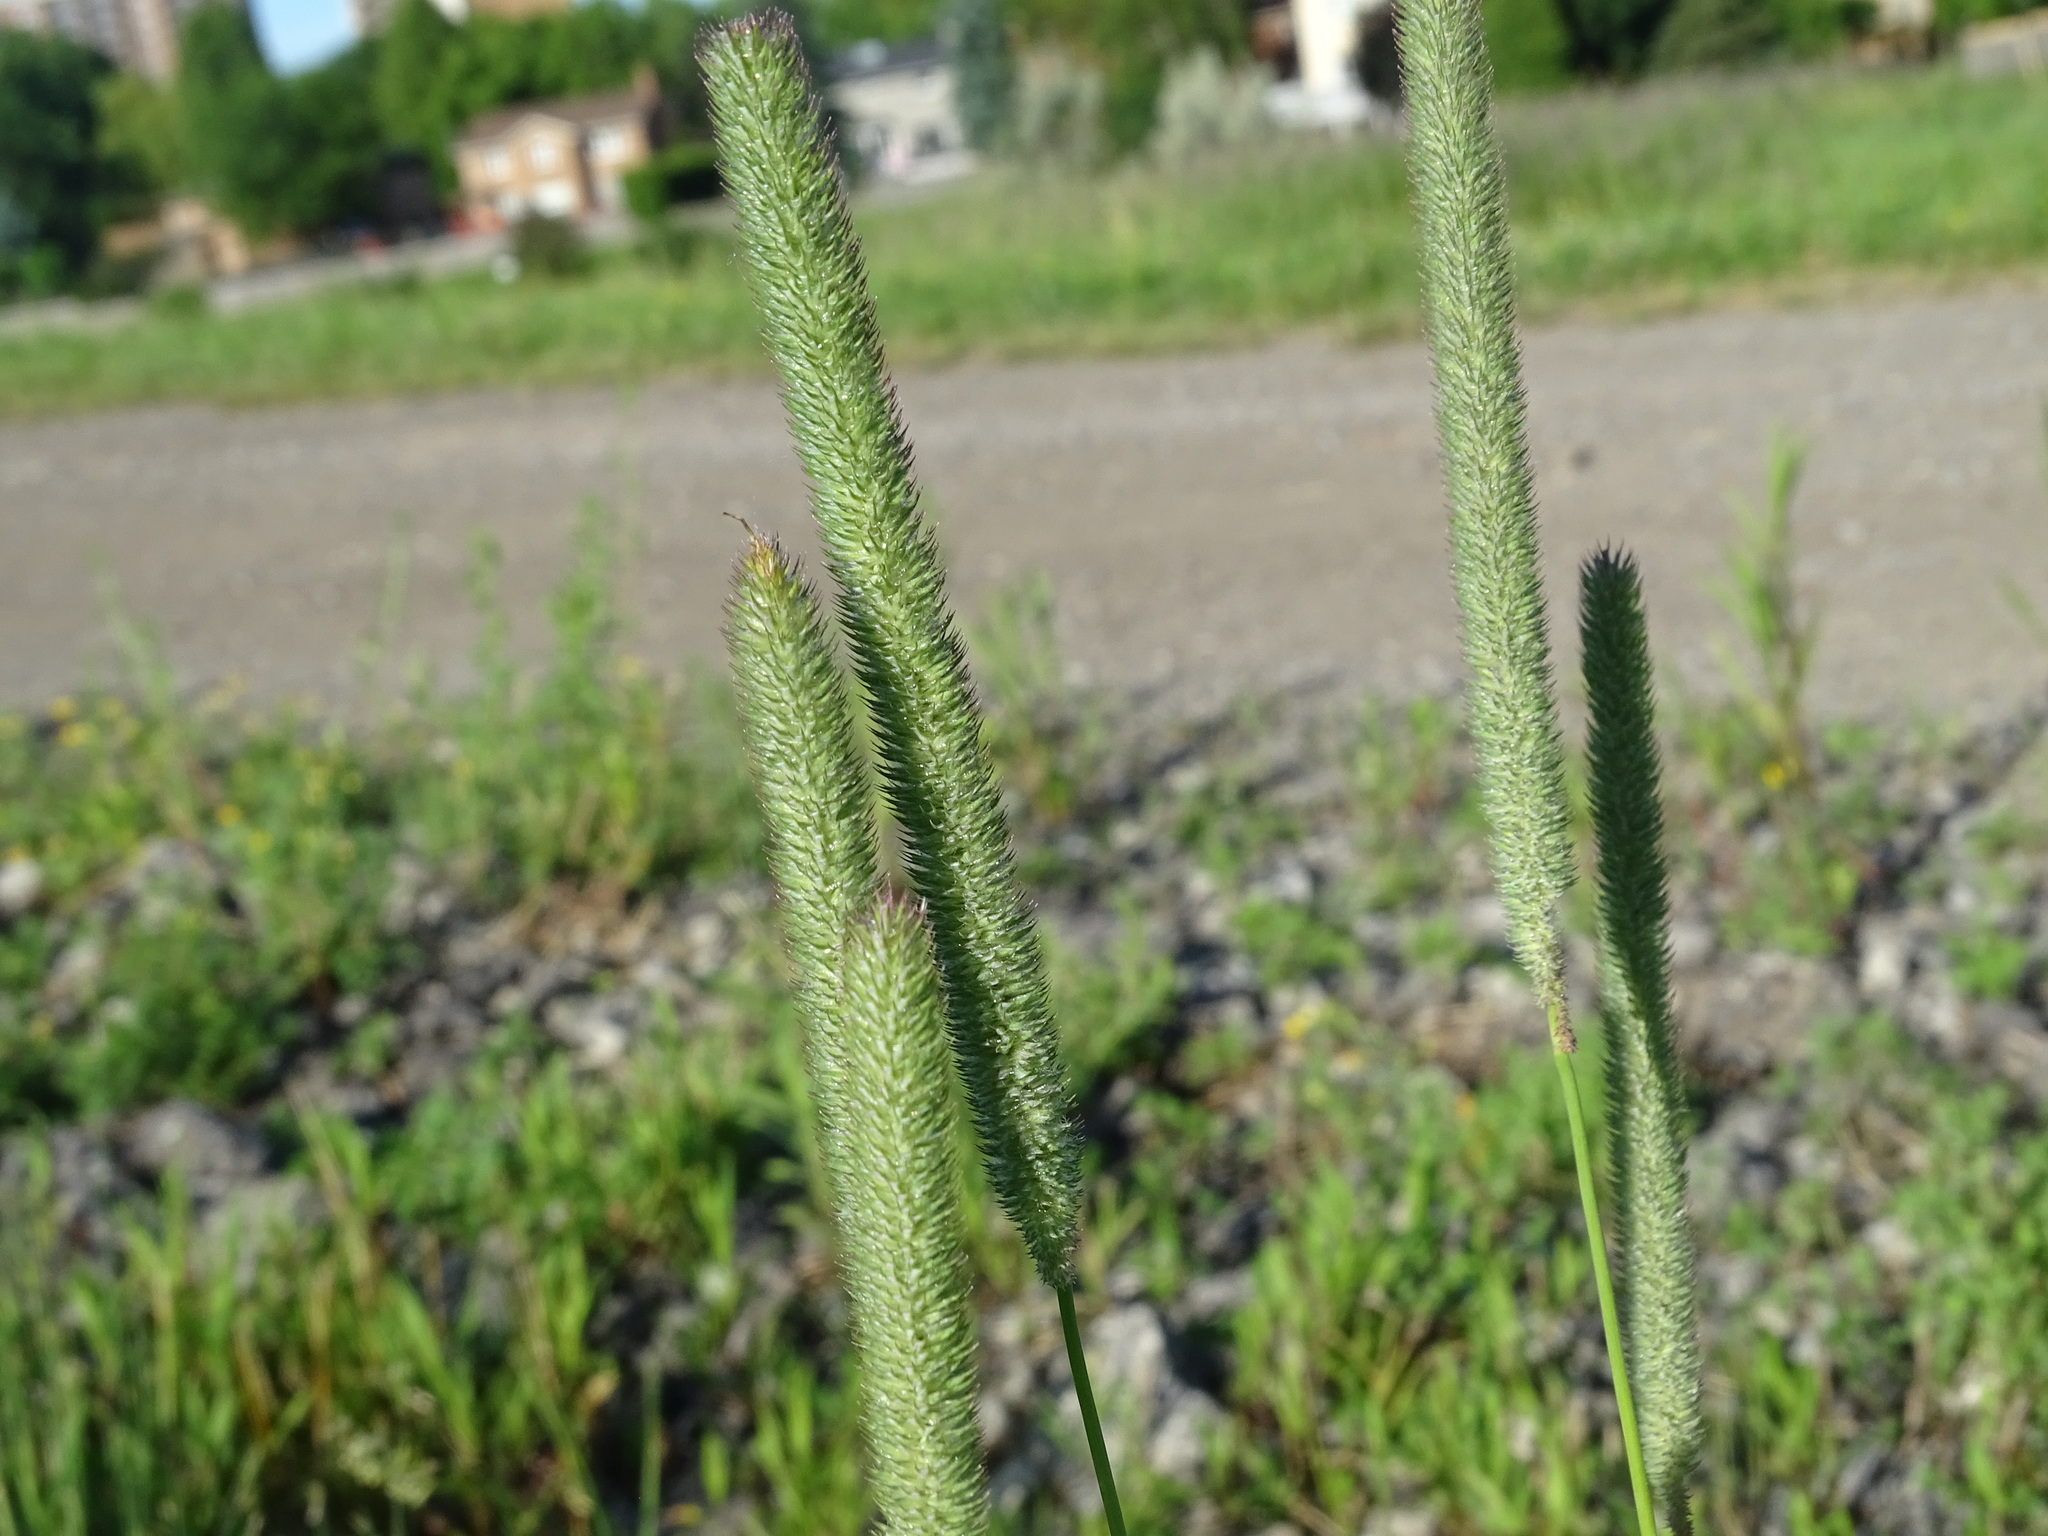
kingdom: Plantae
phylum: Tracheophyta
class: Liliopsida
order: Poales
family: Poaceae
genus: Phleum
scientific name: Phleum pratense
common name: Timothy grass
